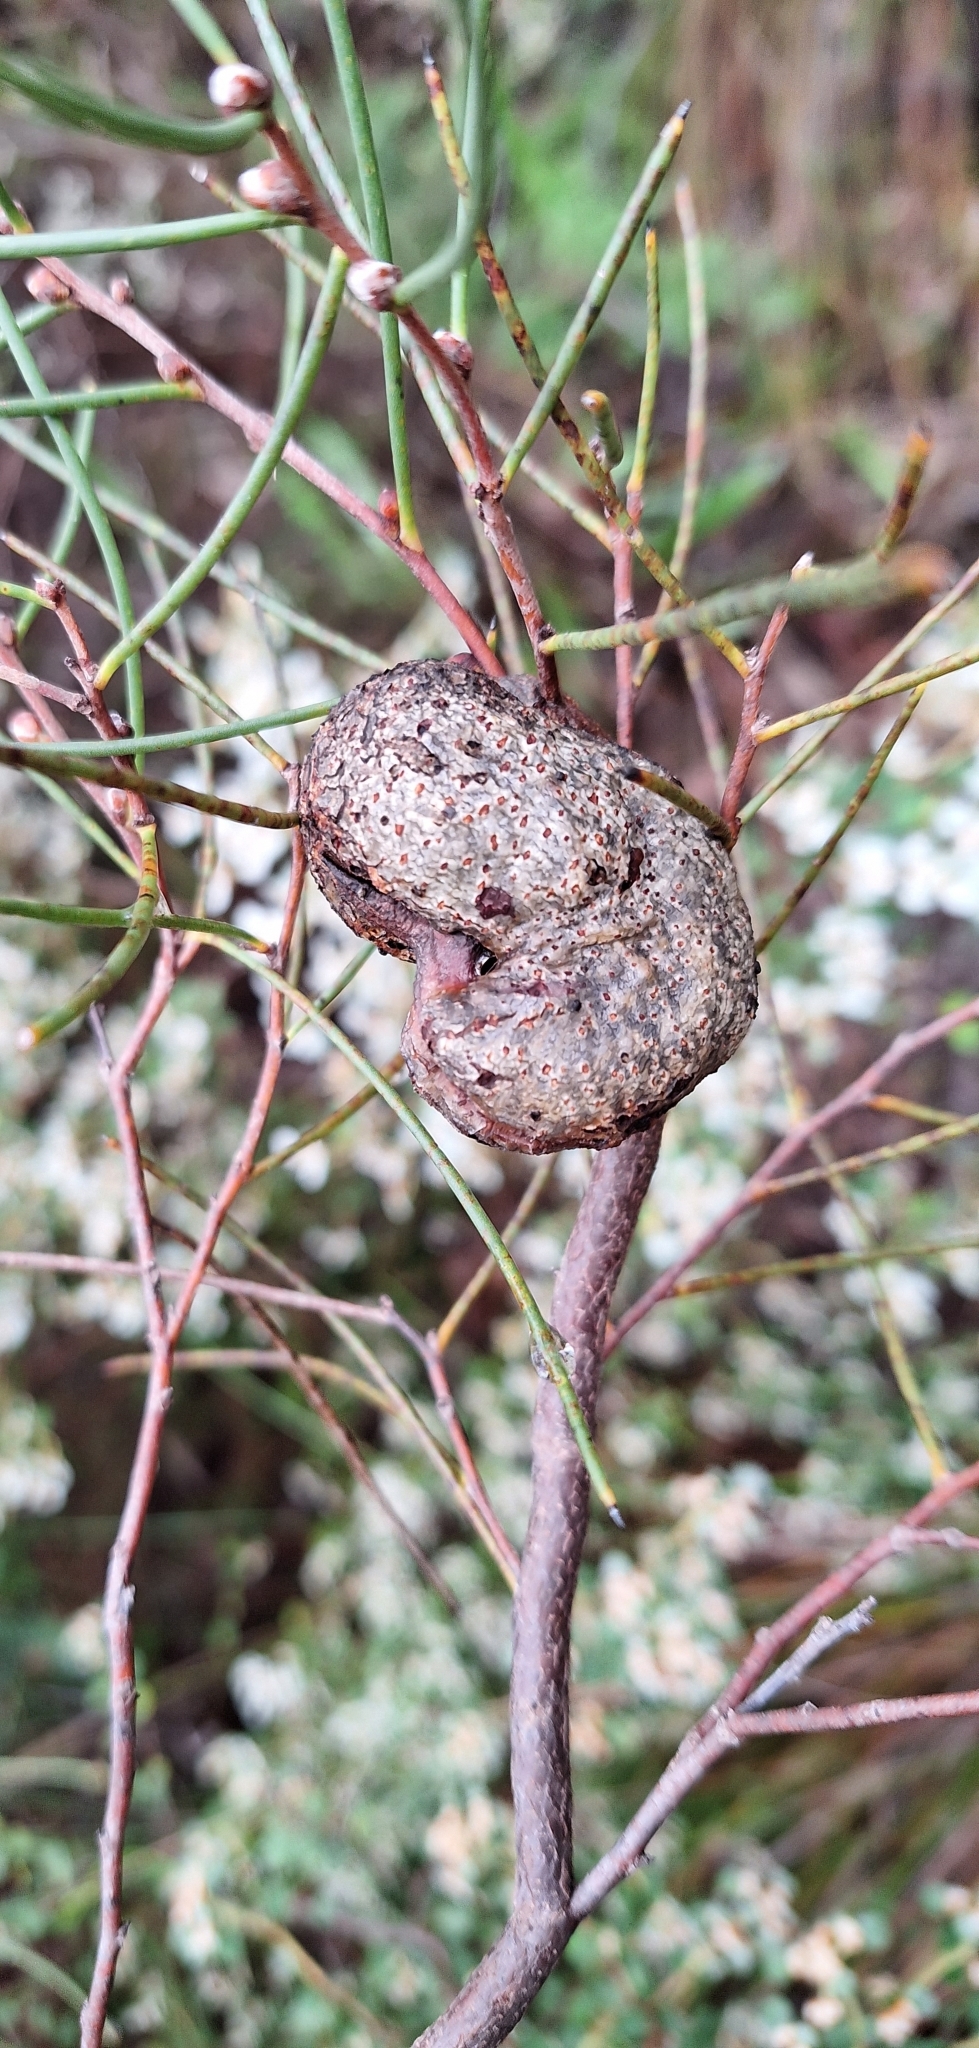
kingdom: Plantae
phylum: Tracheophyta
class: Magnoliopsida
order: Proteales
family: Proteaceae
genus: Hakea
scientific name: Hakea rostrata
